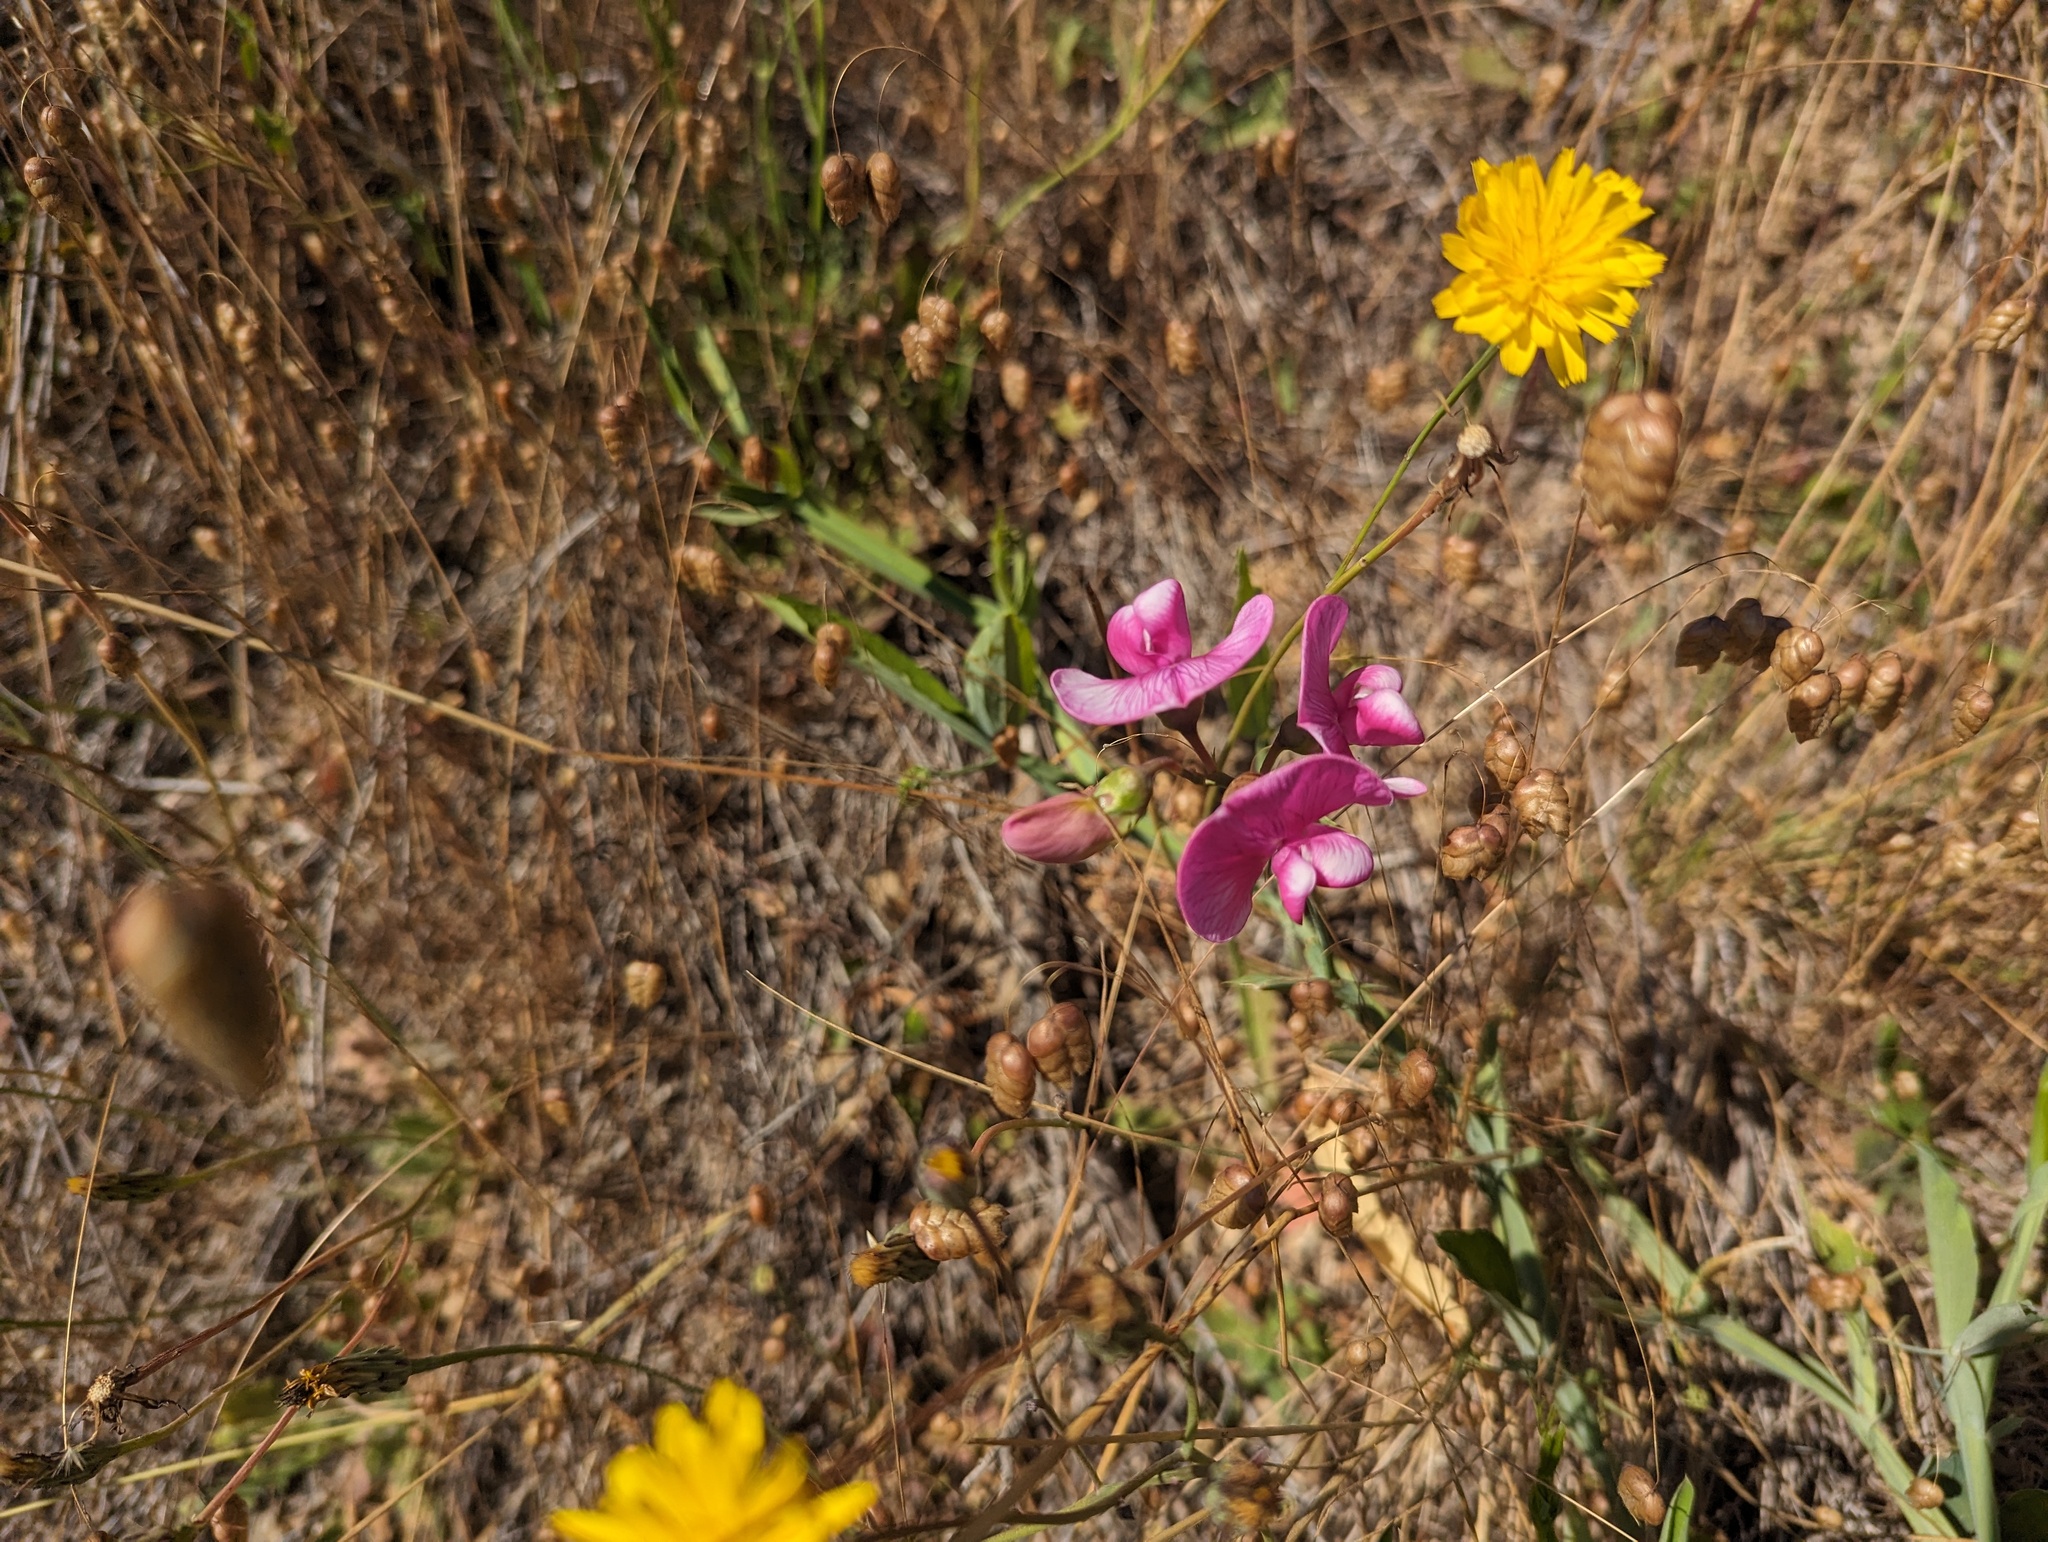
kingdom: Plantae
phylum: Tracheophyta
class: Magnoliopsida
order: Fabales
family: Fabaceae
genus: Lathyrus
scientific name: Lathyrus latifolius
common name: Perennial pea
